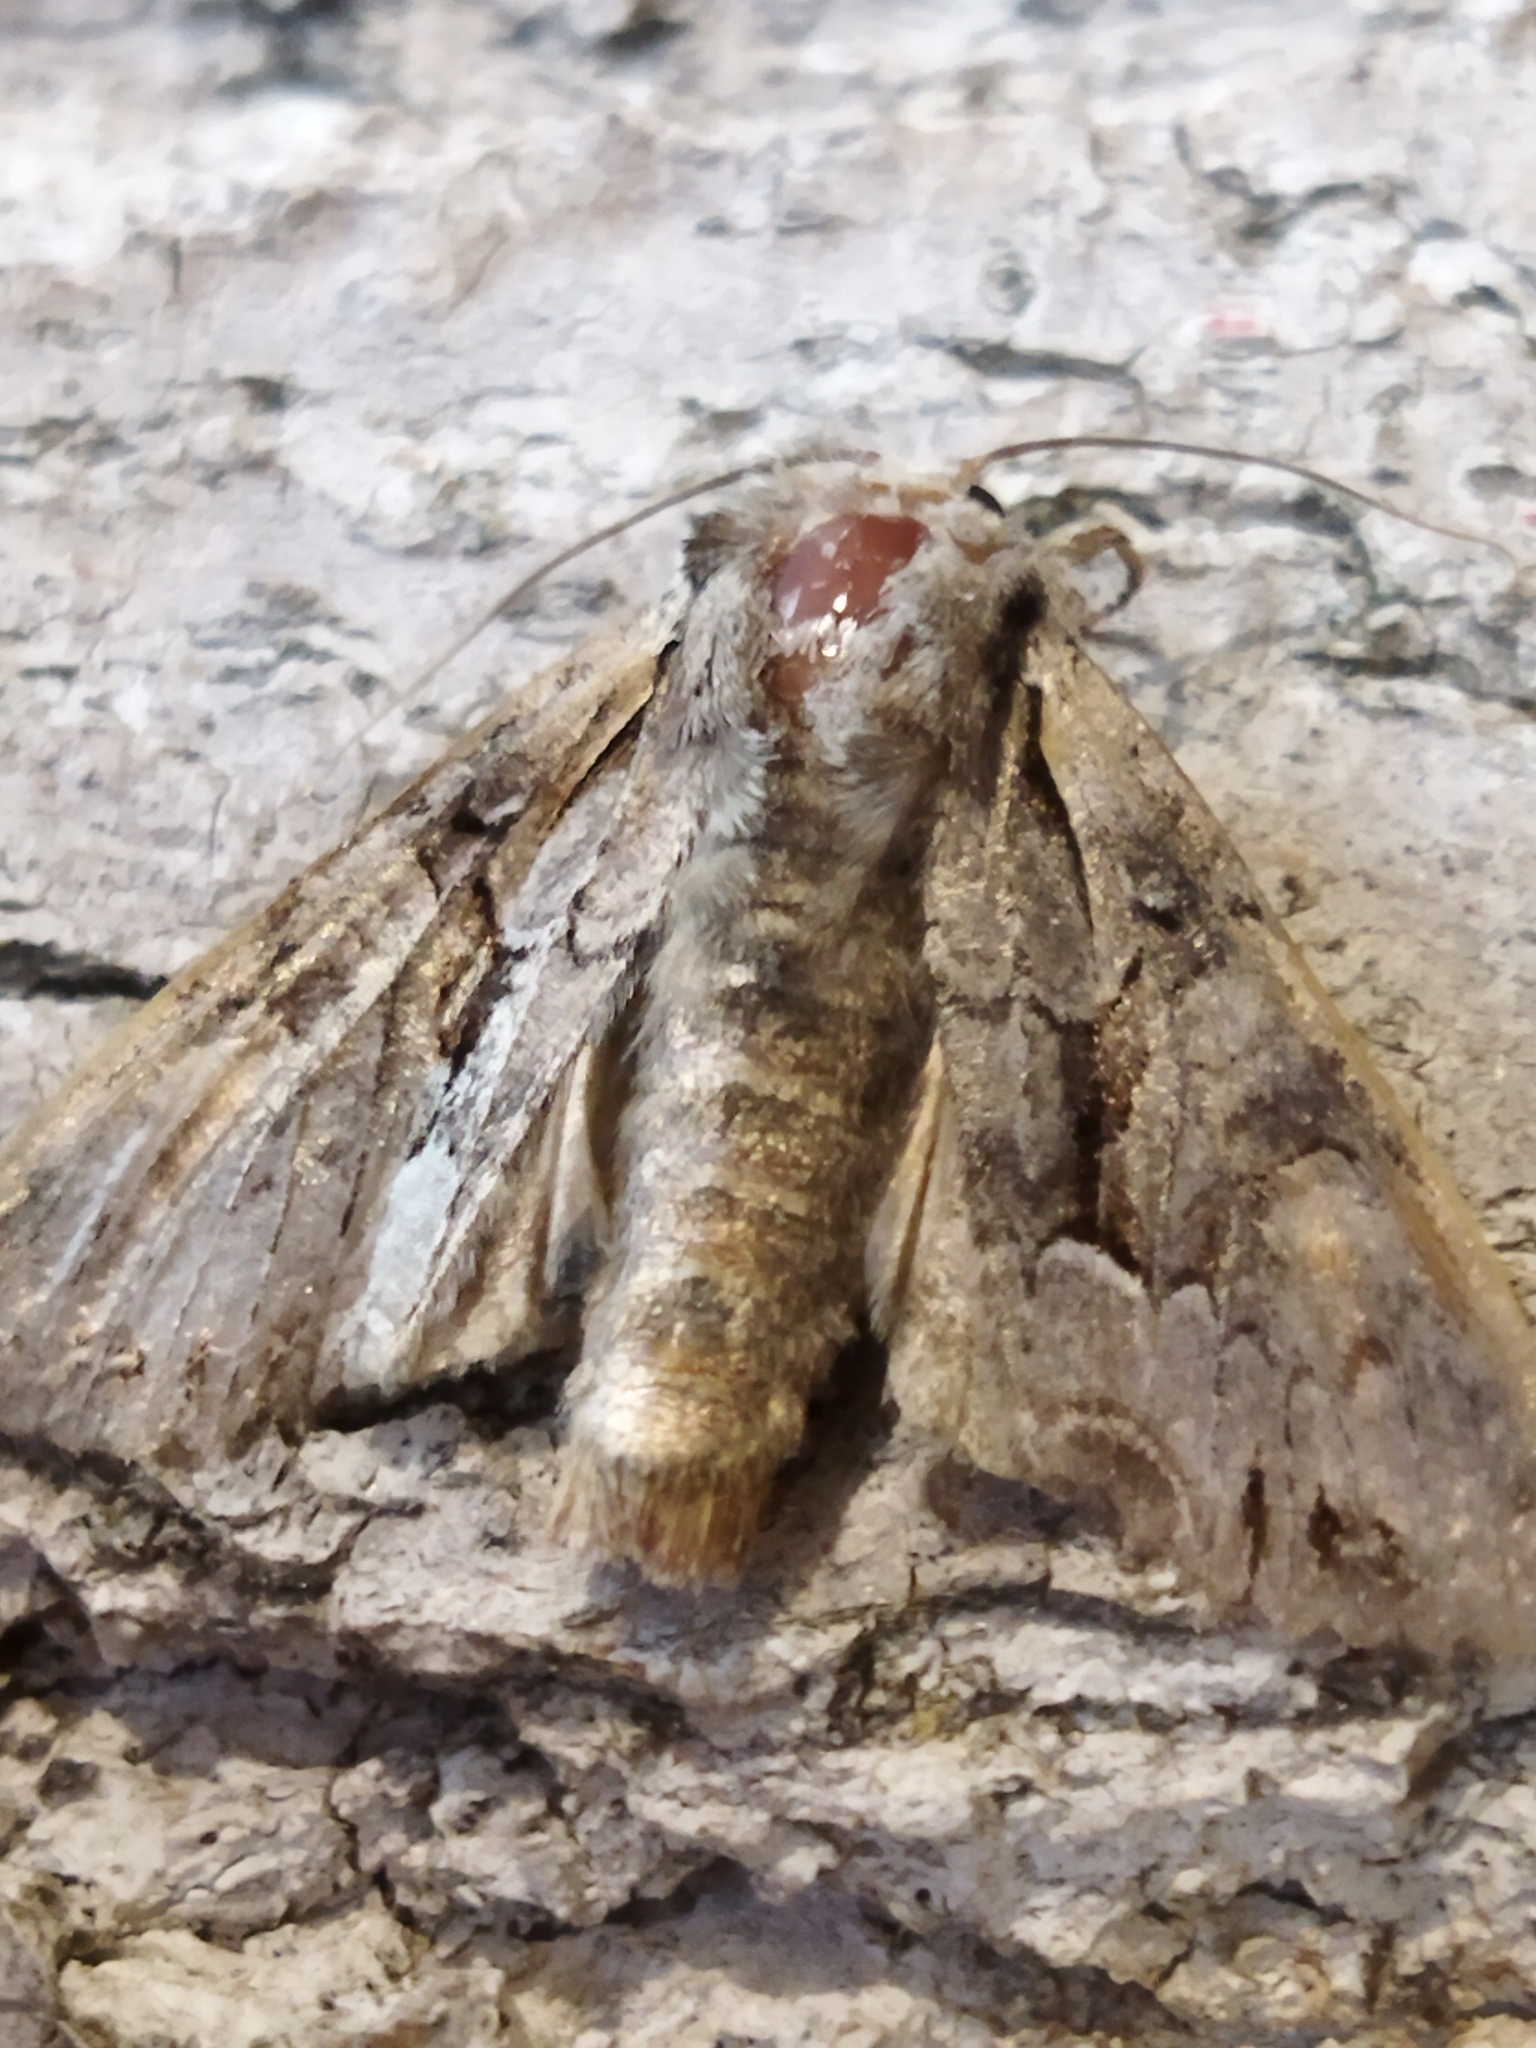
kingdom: Animalia
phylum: Arthropoda
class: Insecta
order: Lepidoptera
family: Noctuidae
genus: Lacanobia
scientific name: Lacanobia w-latinum
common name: Light brocade
